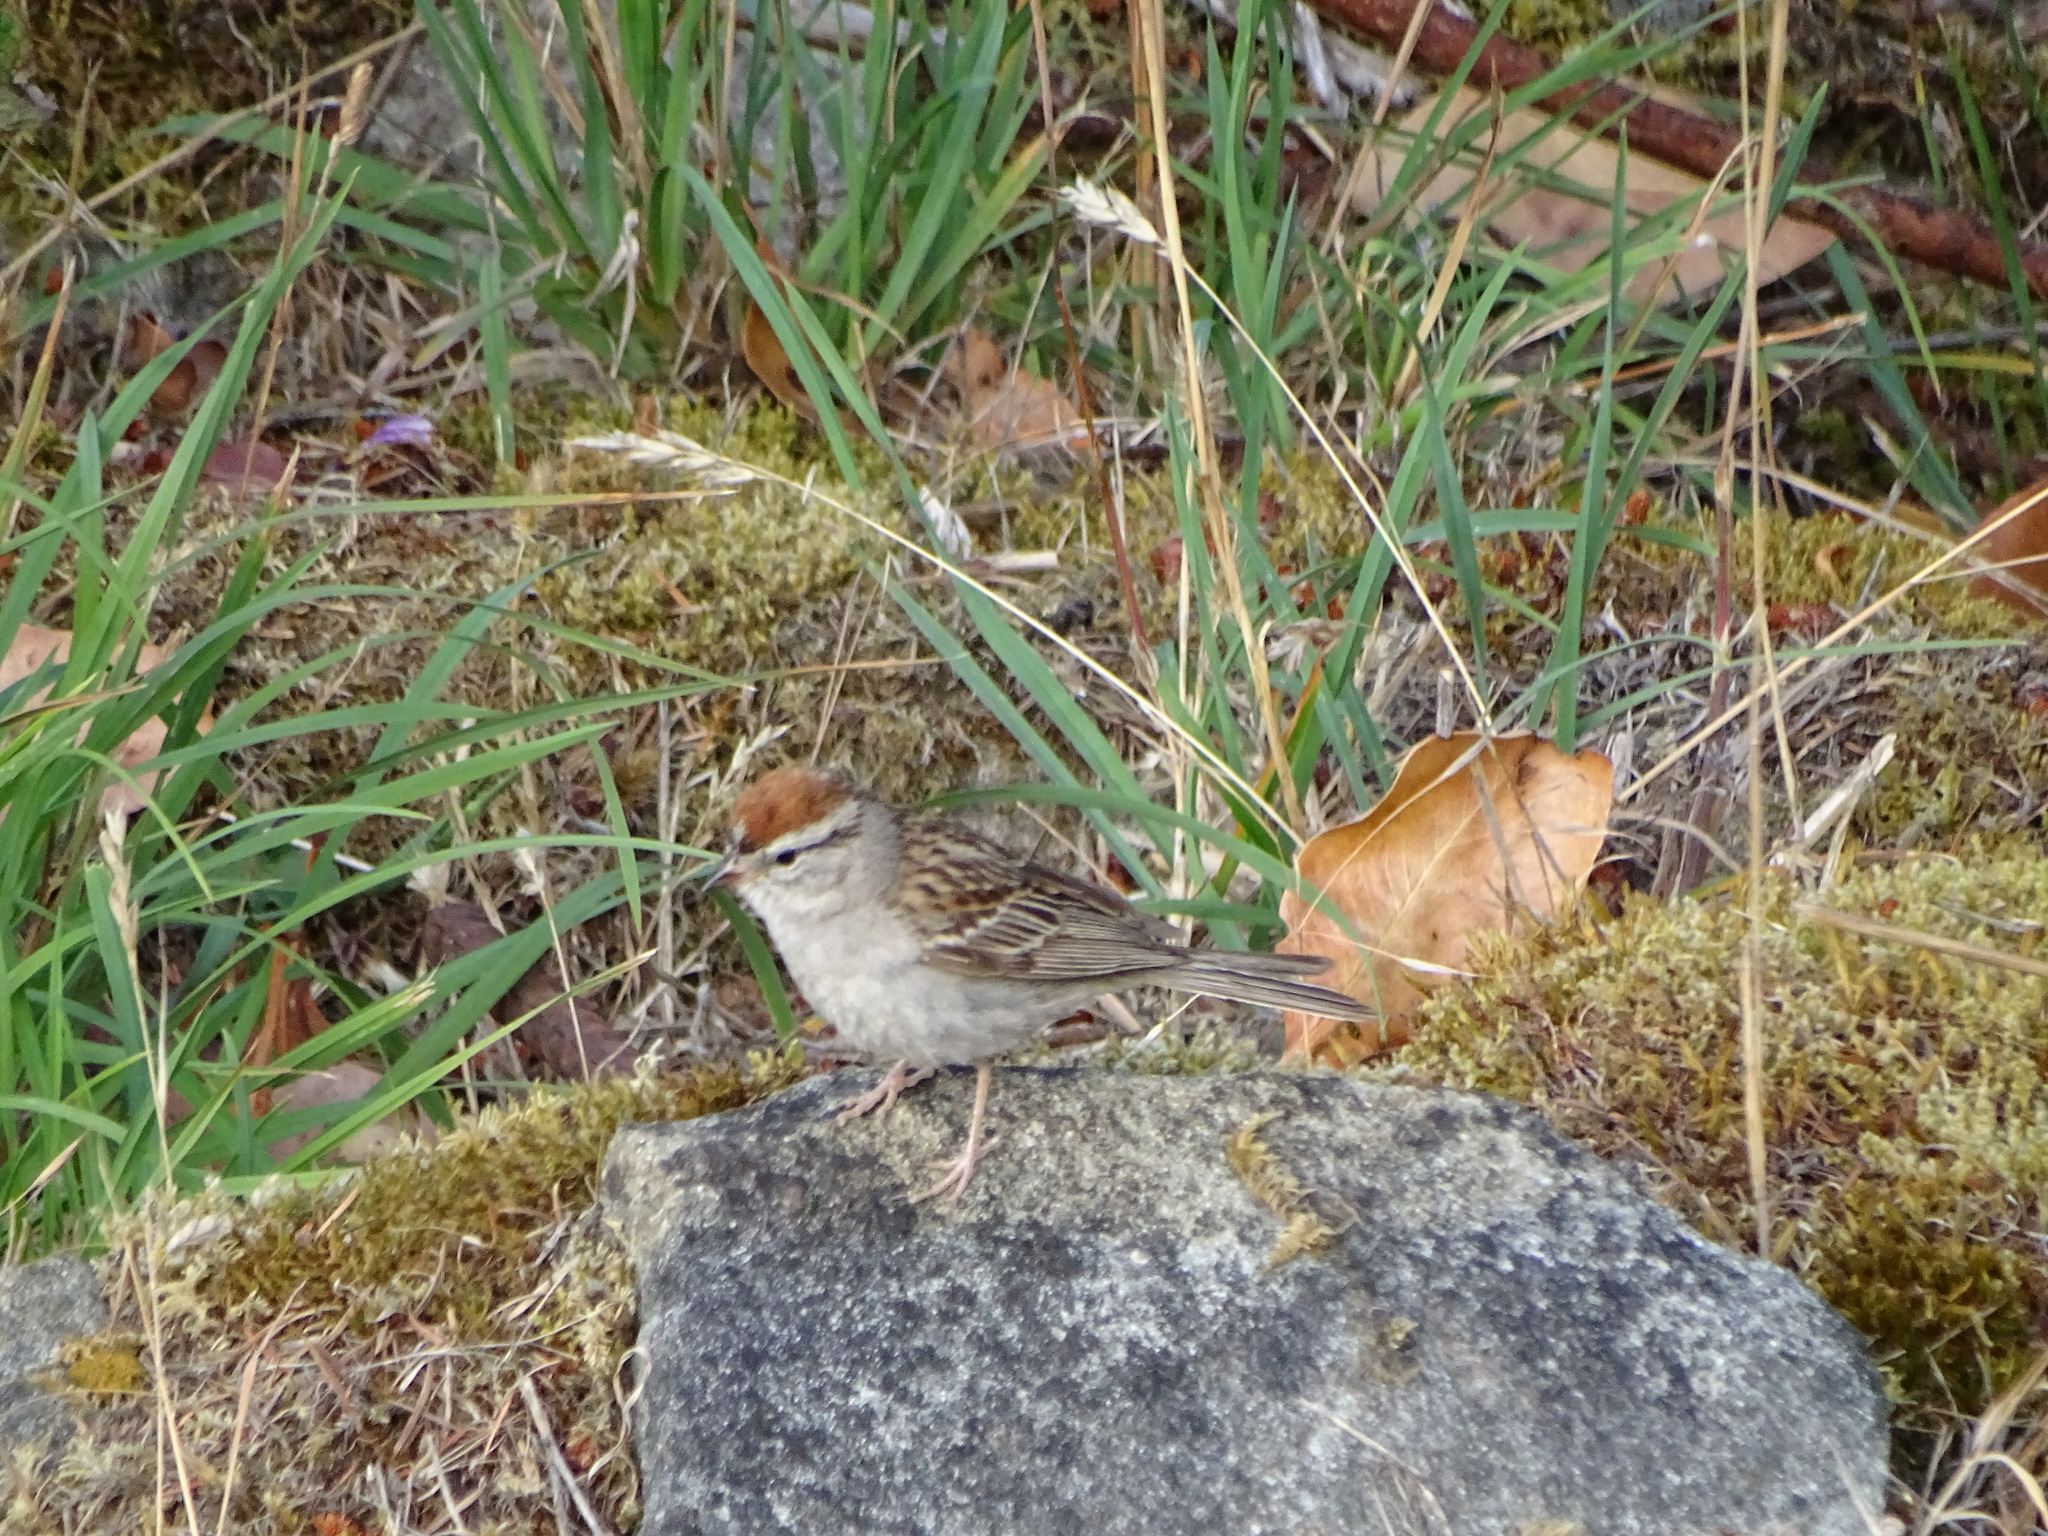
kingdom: Animalia
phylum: Chordata
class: Aves
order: Passeriformes
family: Passerellidae
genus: Spizella
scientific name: Spizella passerina
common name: Chipping sparrow
